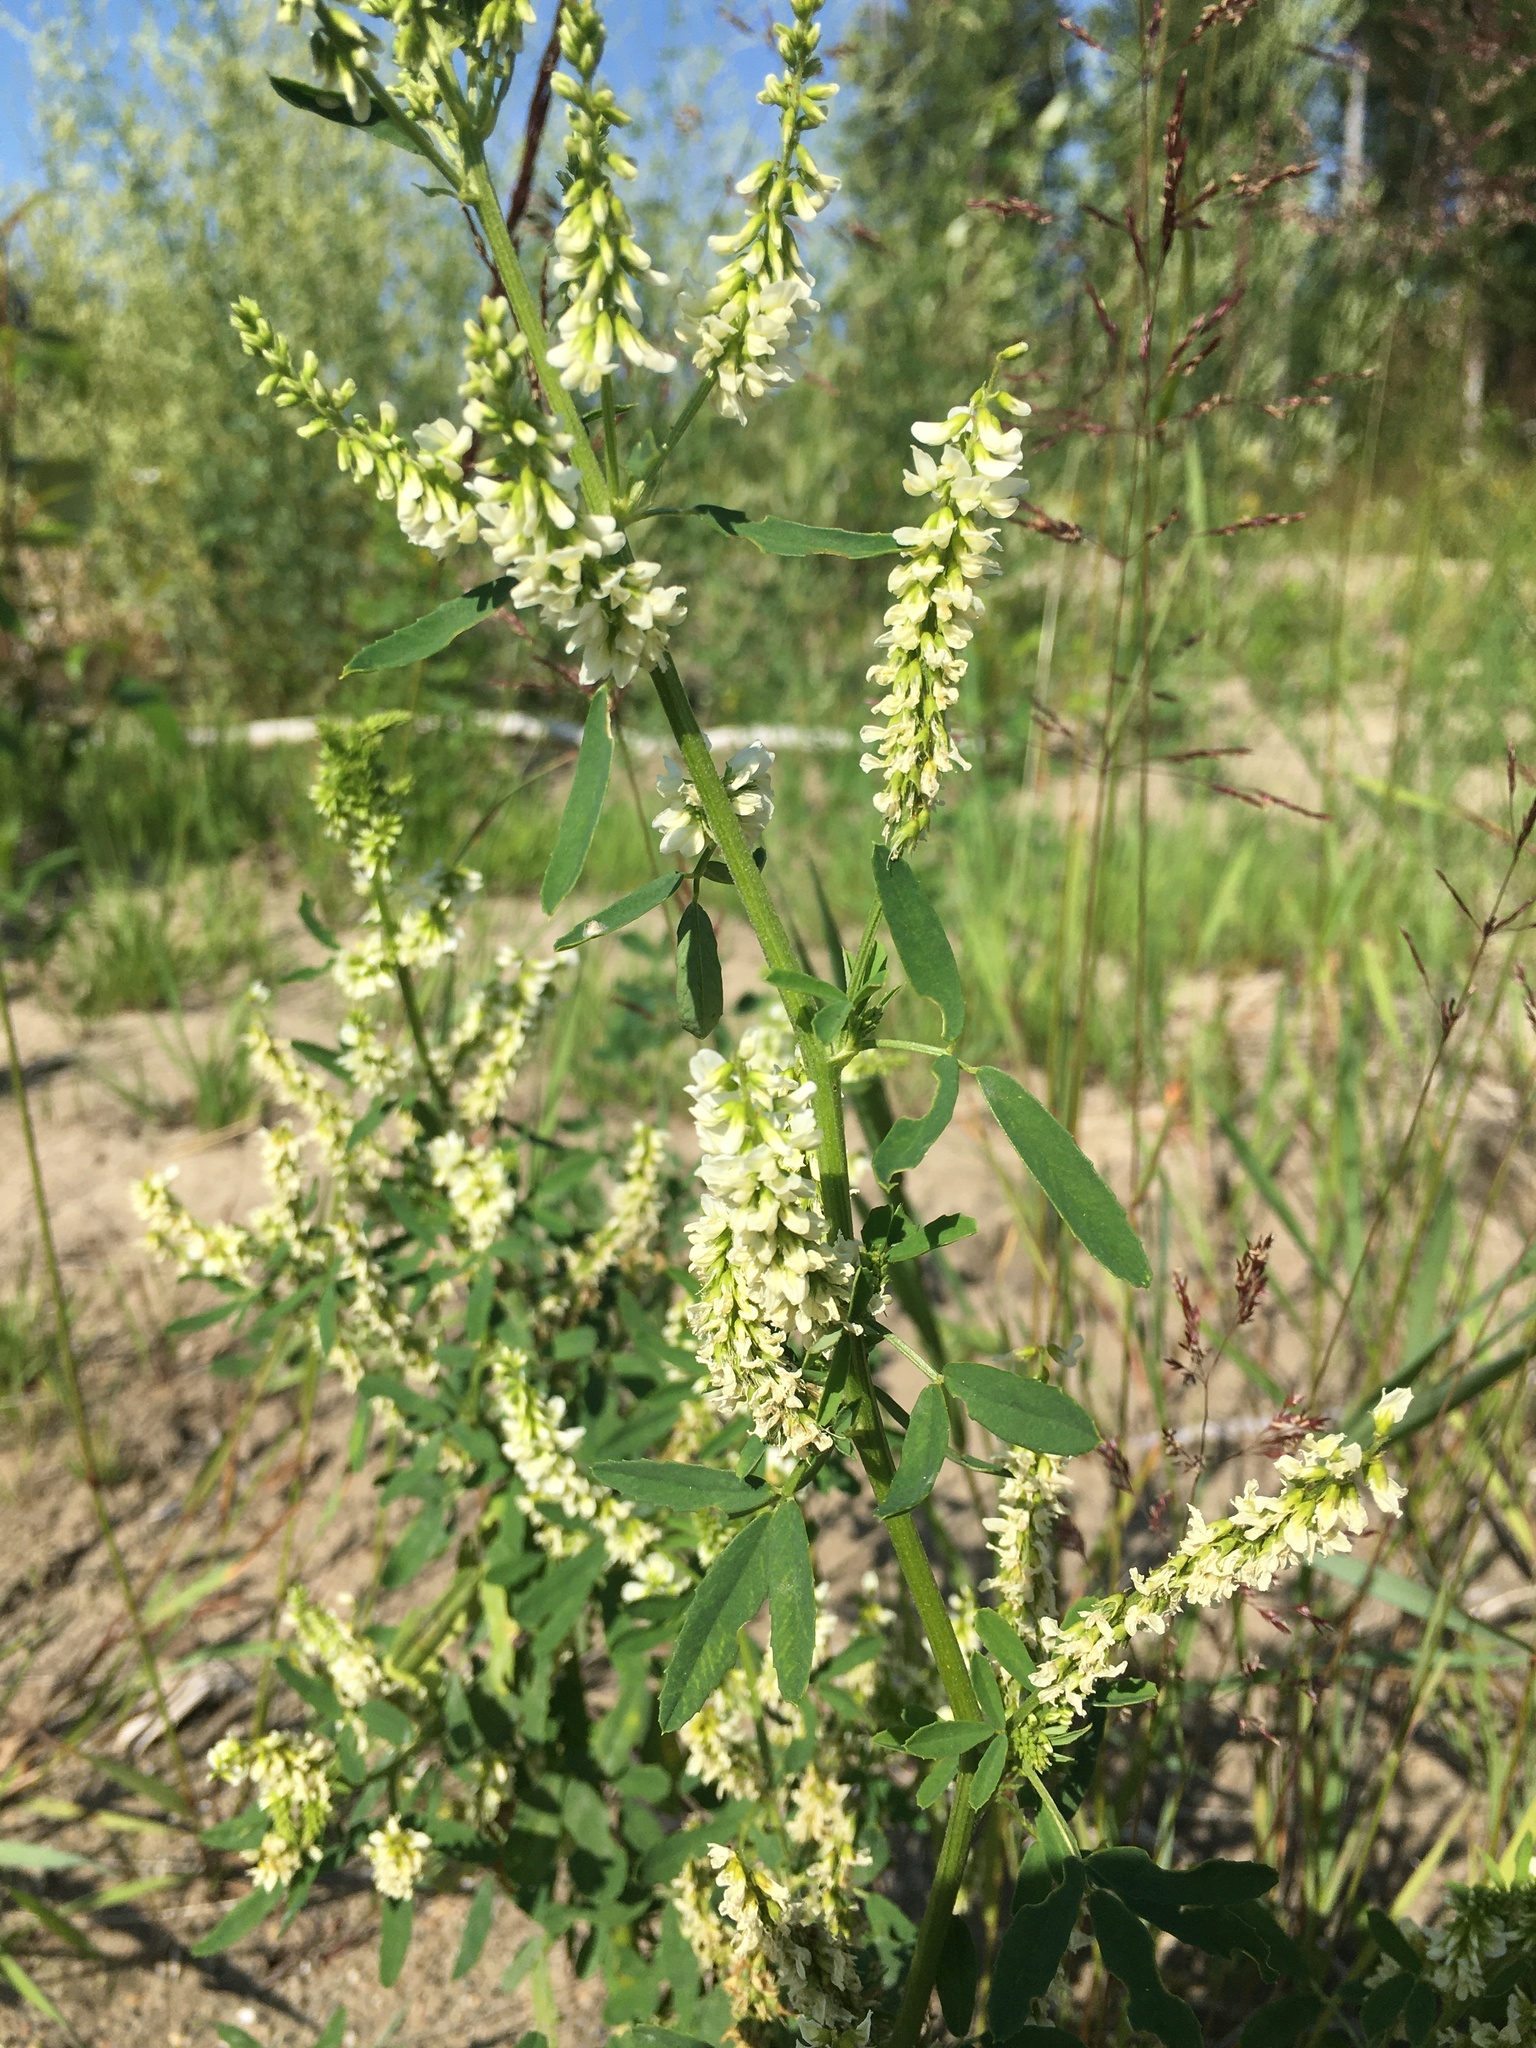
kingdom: Plantae
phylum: Tracheophyta
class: Magnoliopsida
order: Fabales
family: Fabaceae
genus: Melilotus
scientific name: Melilotus albus
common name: White melilot
